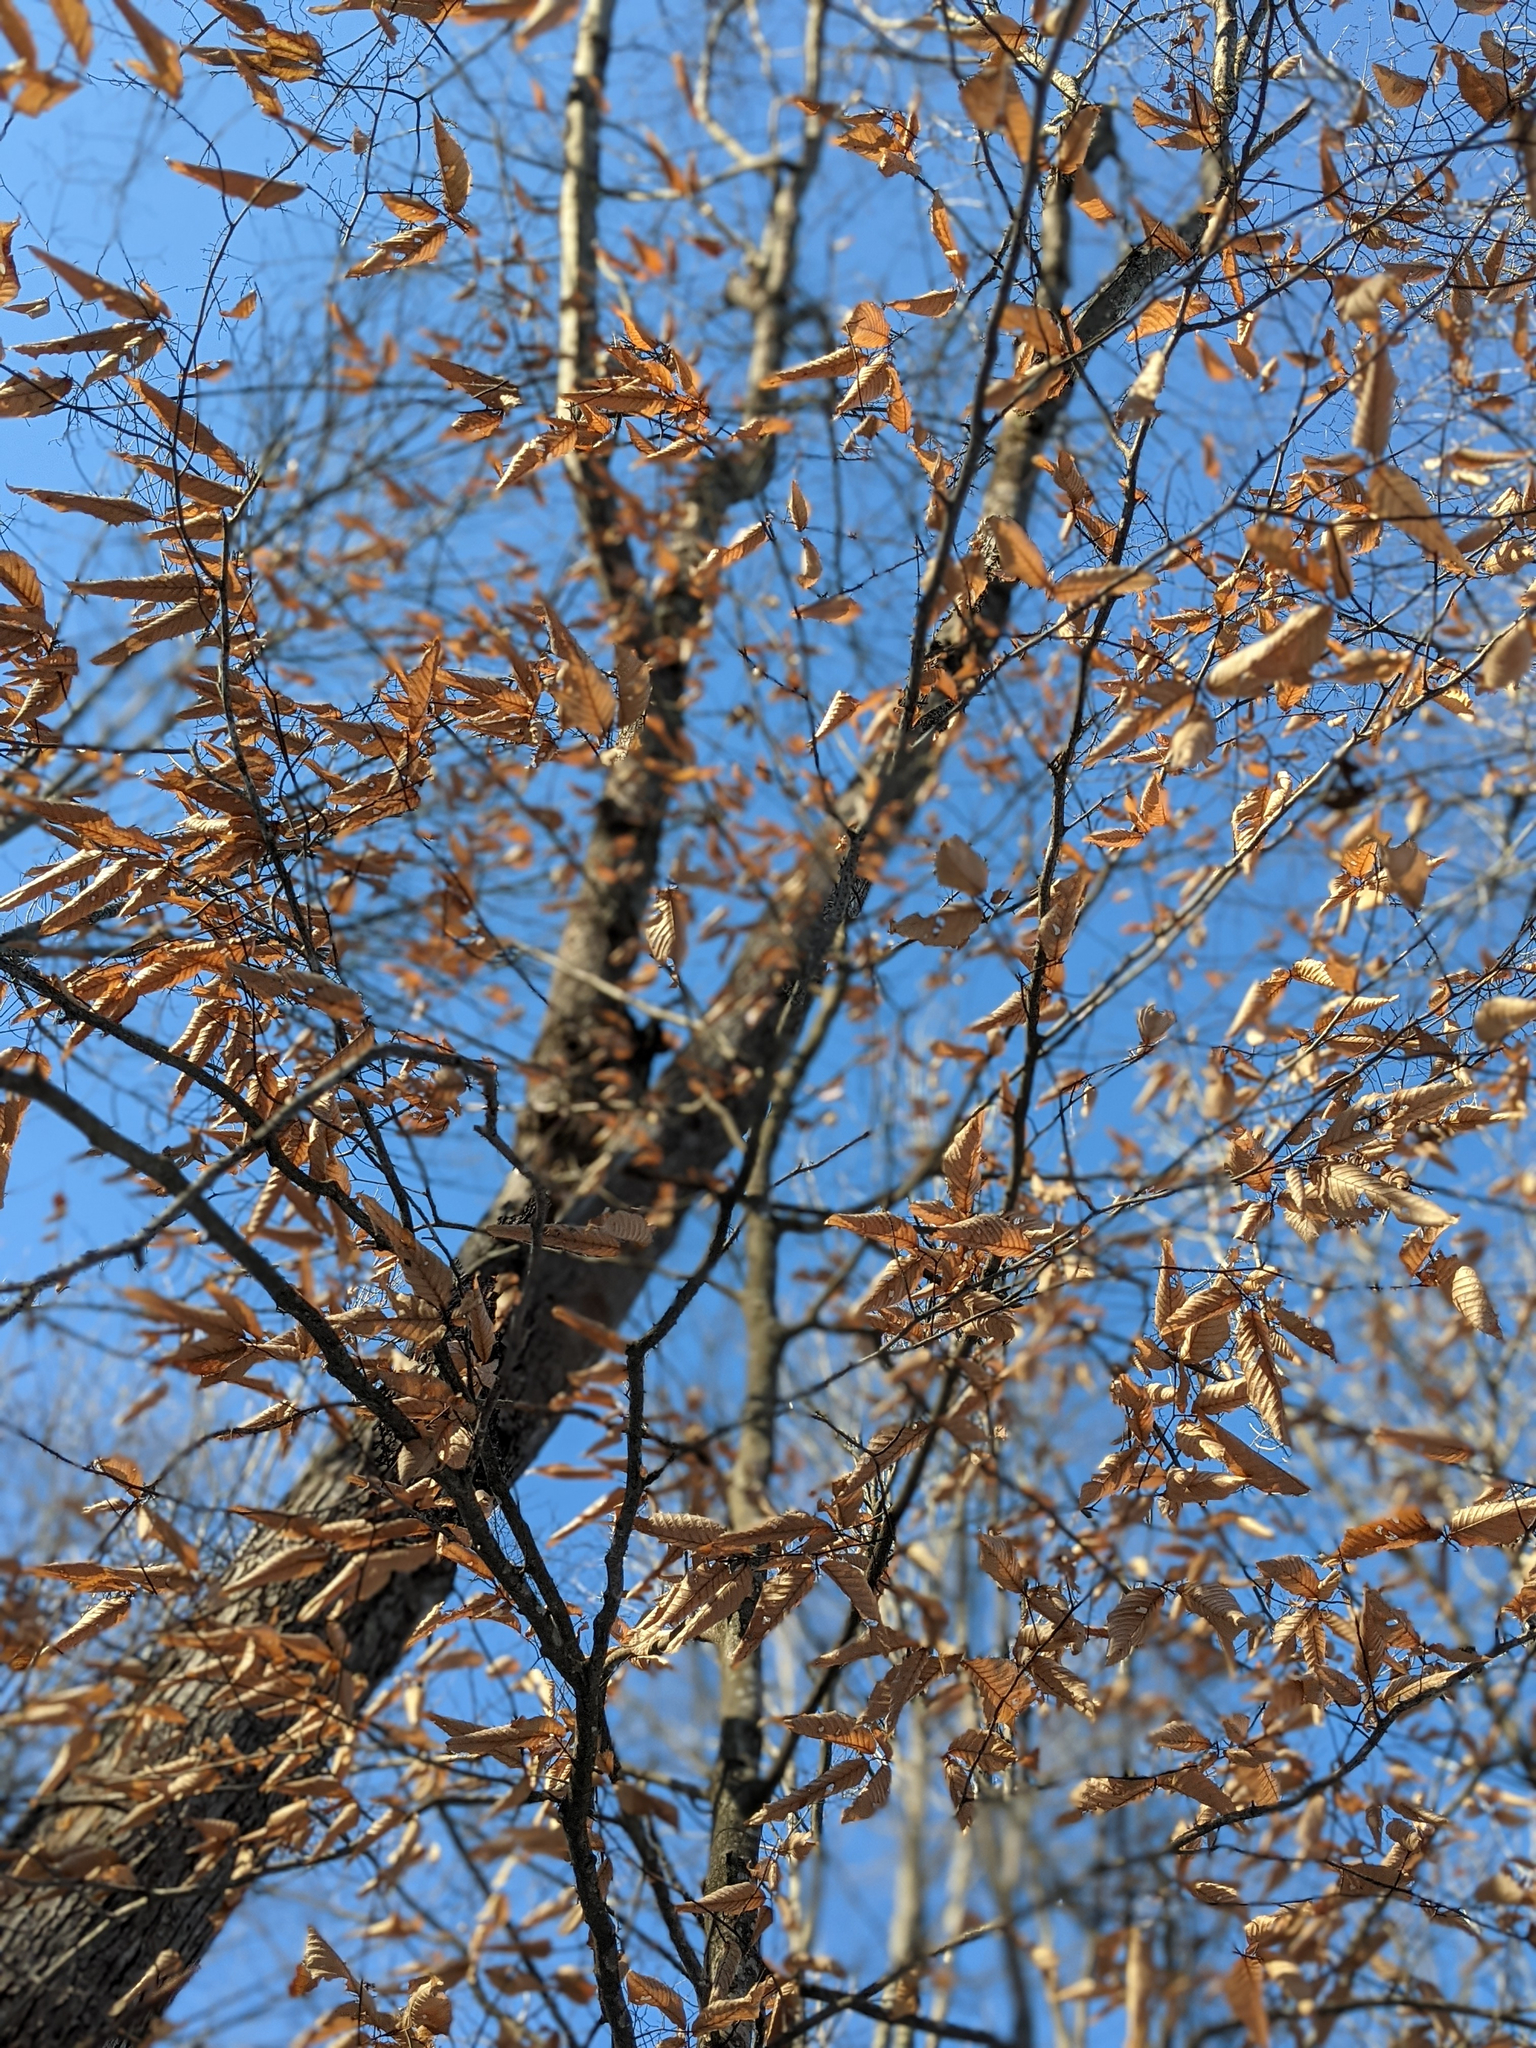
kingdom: Plantae
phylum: Tracheophyta
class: Magnoliopsida
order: Fagales
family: Fagaceae
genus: Fagus
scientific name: Fagus grandifolia
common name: American beech
